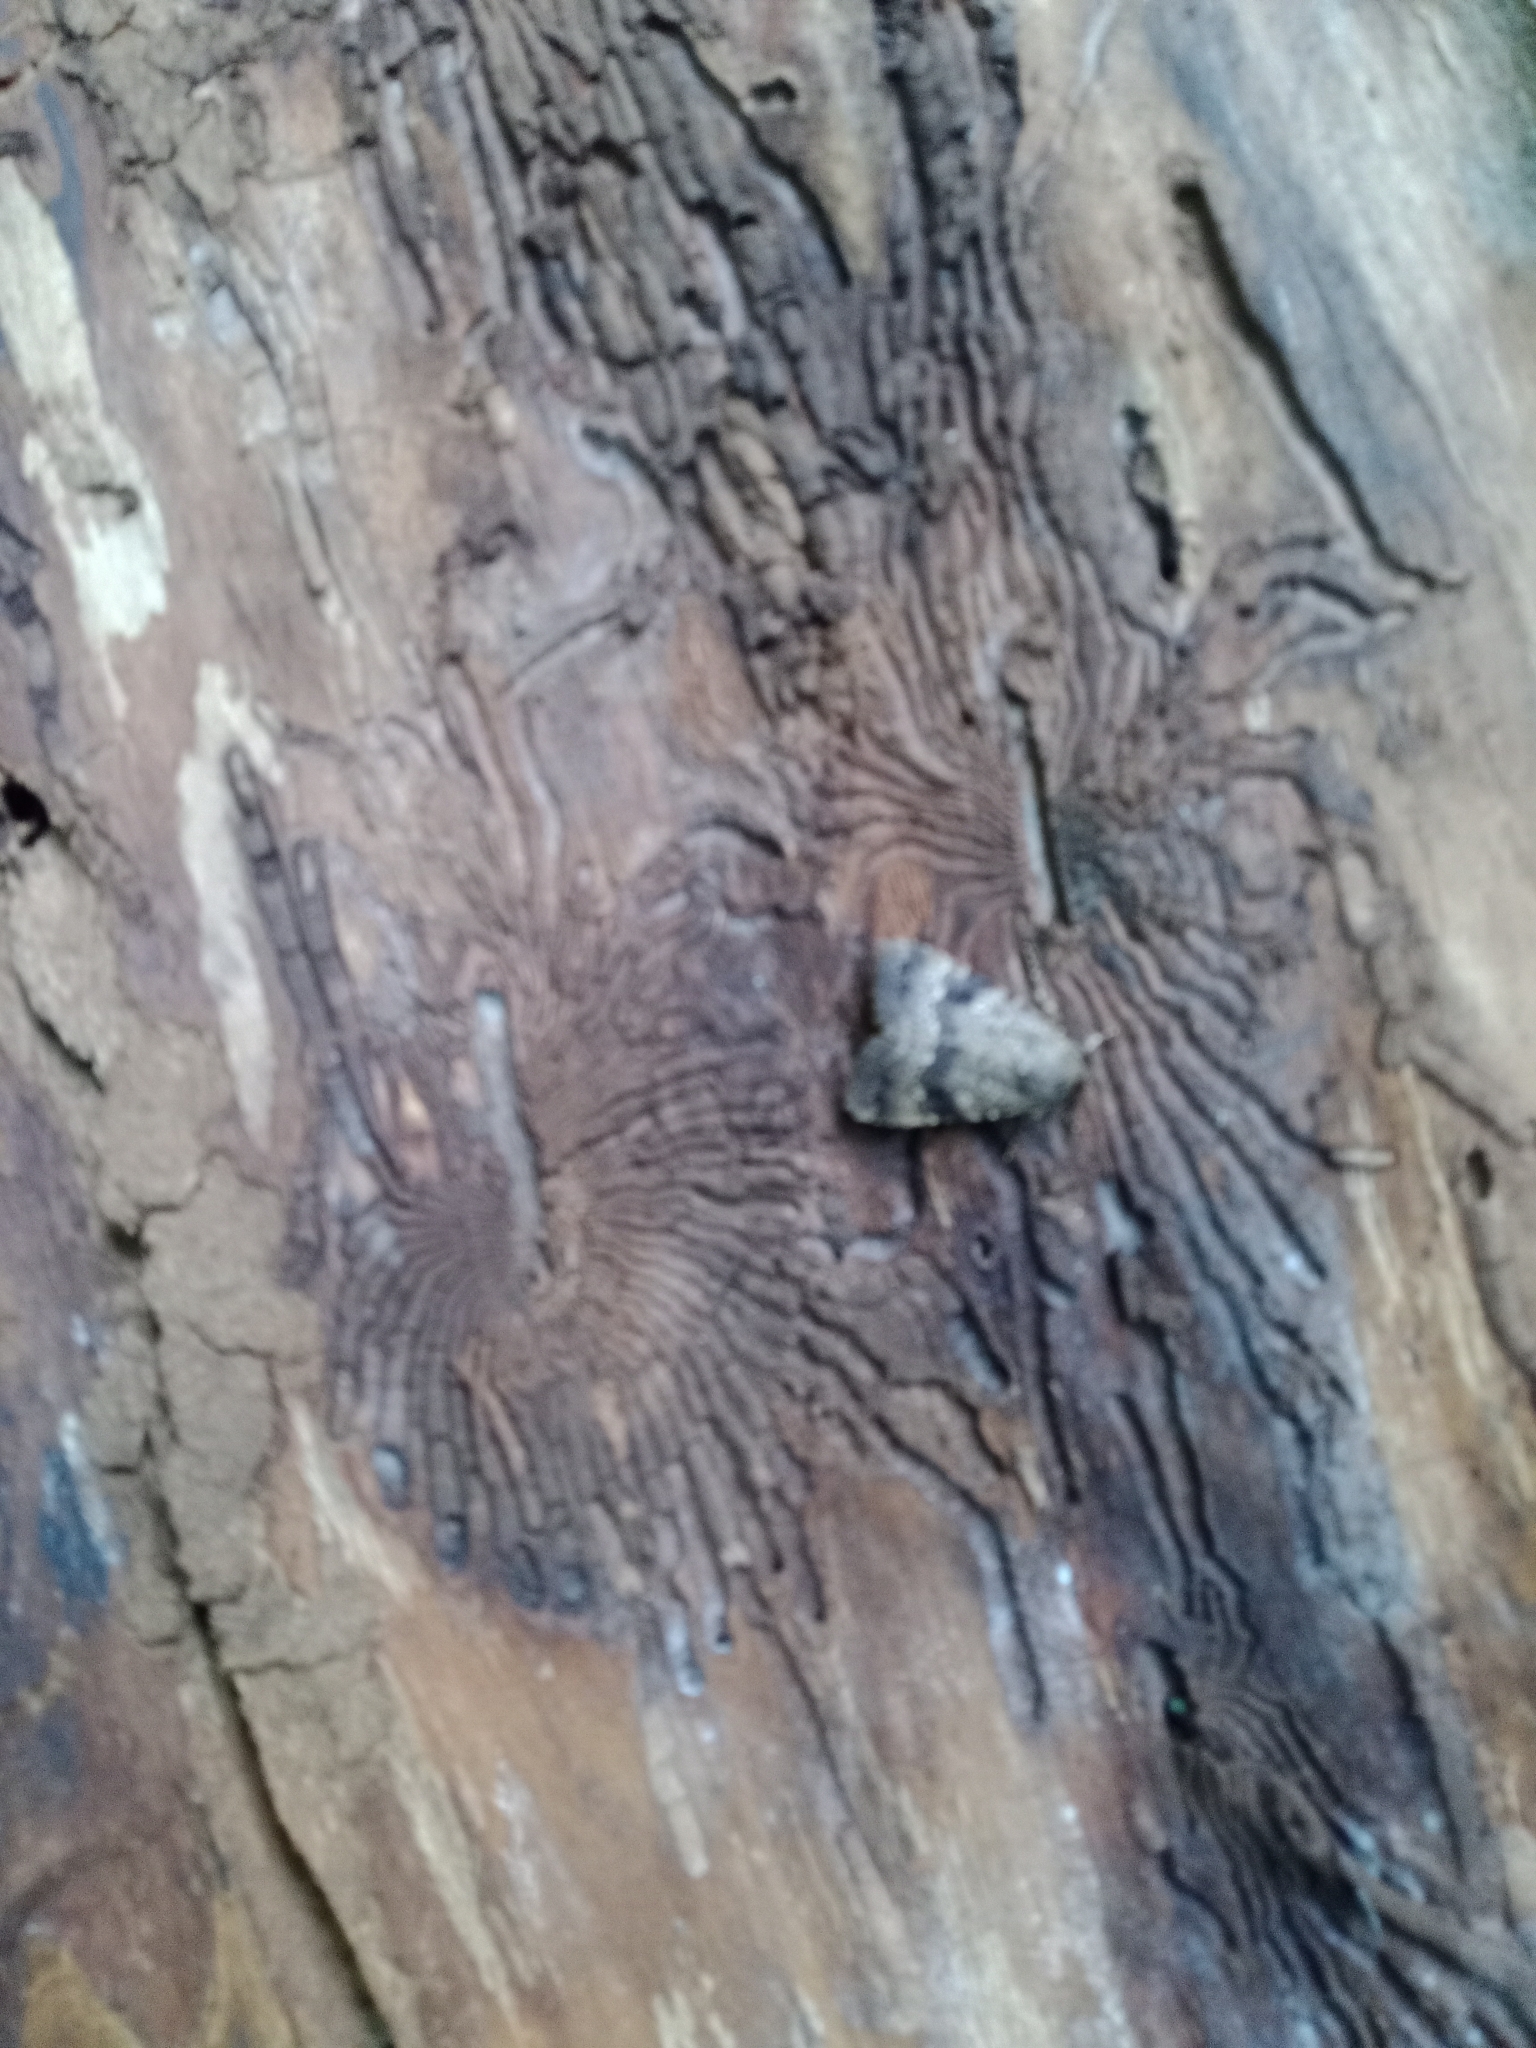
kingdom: Animalia
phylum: Arthropoda
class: Insecta
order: Lepidoptera
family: Noctuidae
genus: Amphipyra
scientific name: Amphipyra pyramidea
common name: Copper underwing
